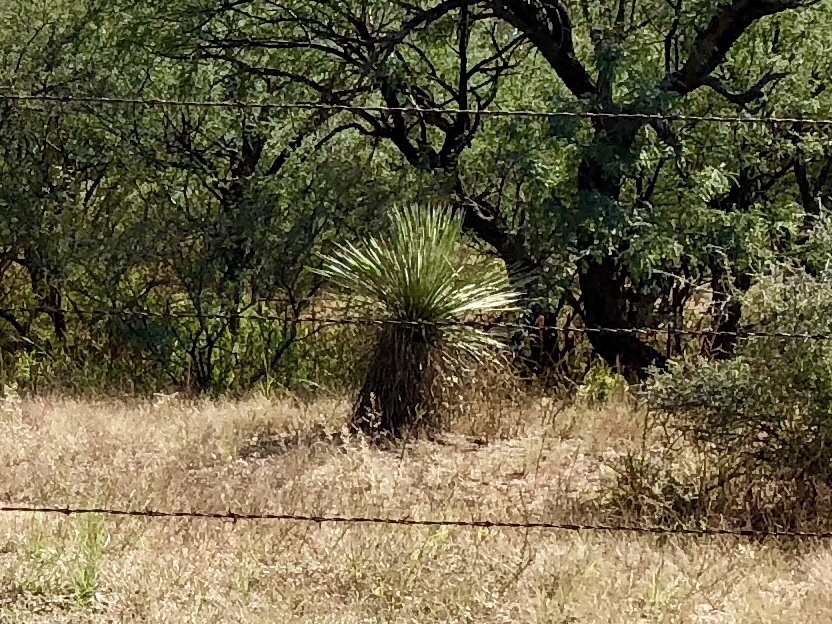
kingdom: Plantae
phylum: Tracheophyta
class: Liliopsida
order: Asparagales
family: Asparagaceae
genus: Yucca
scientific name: Yucca elata
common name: Palmella
